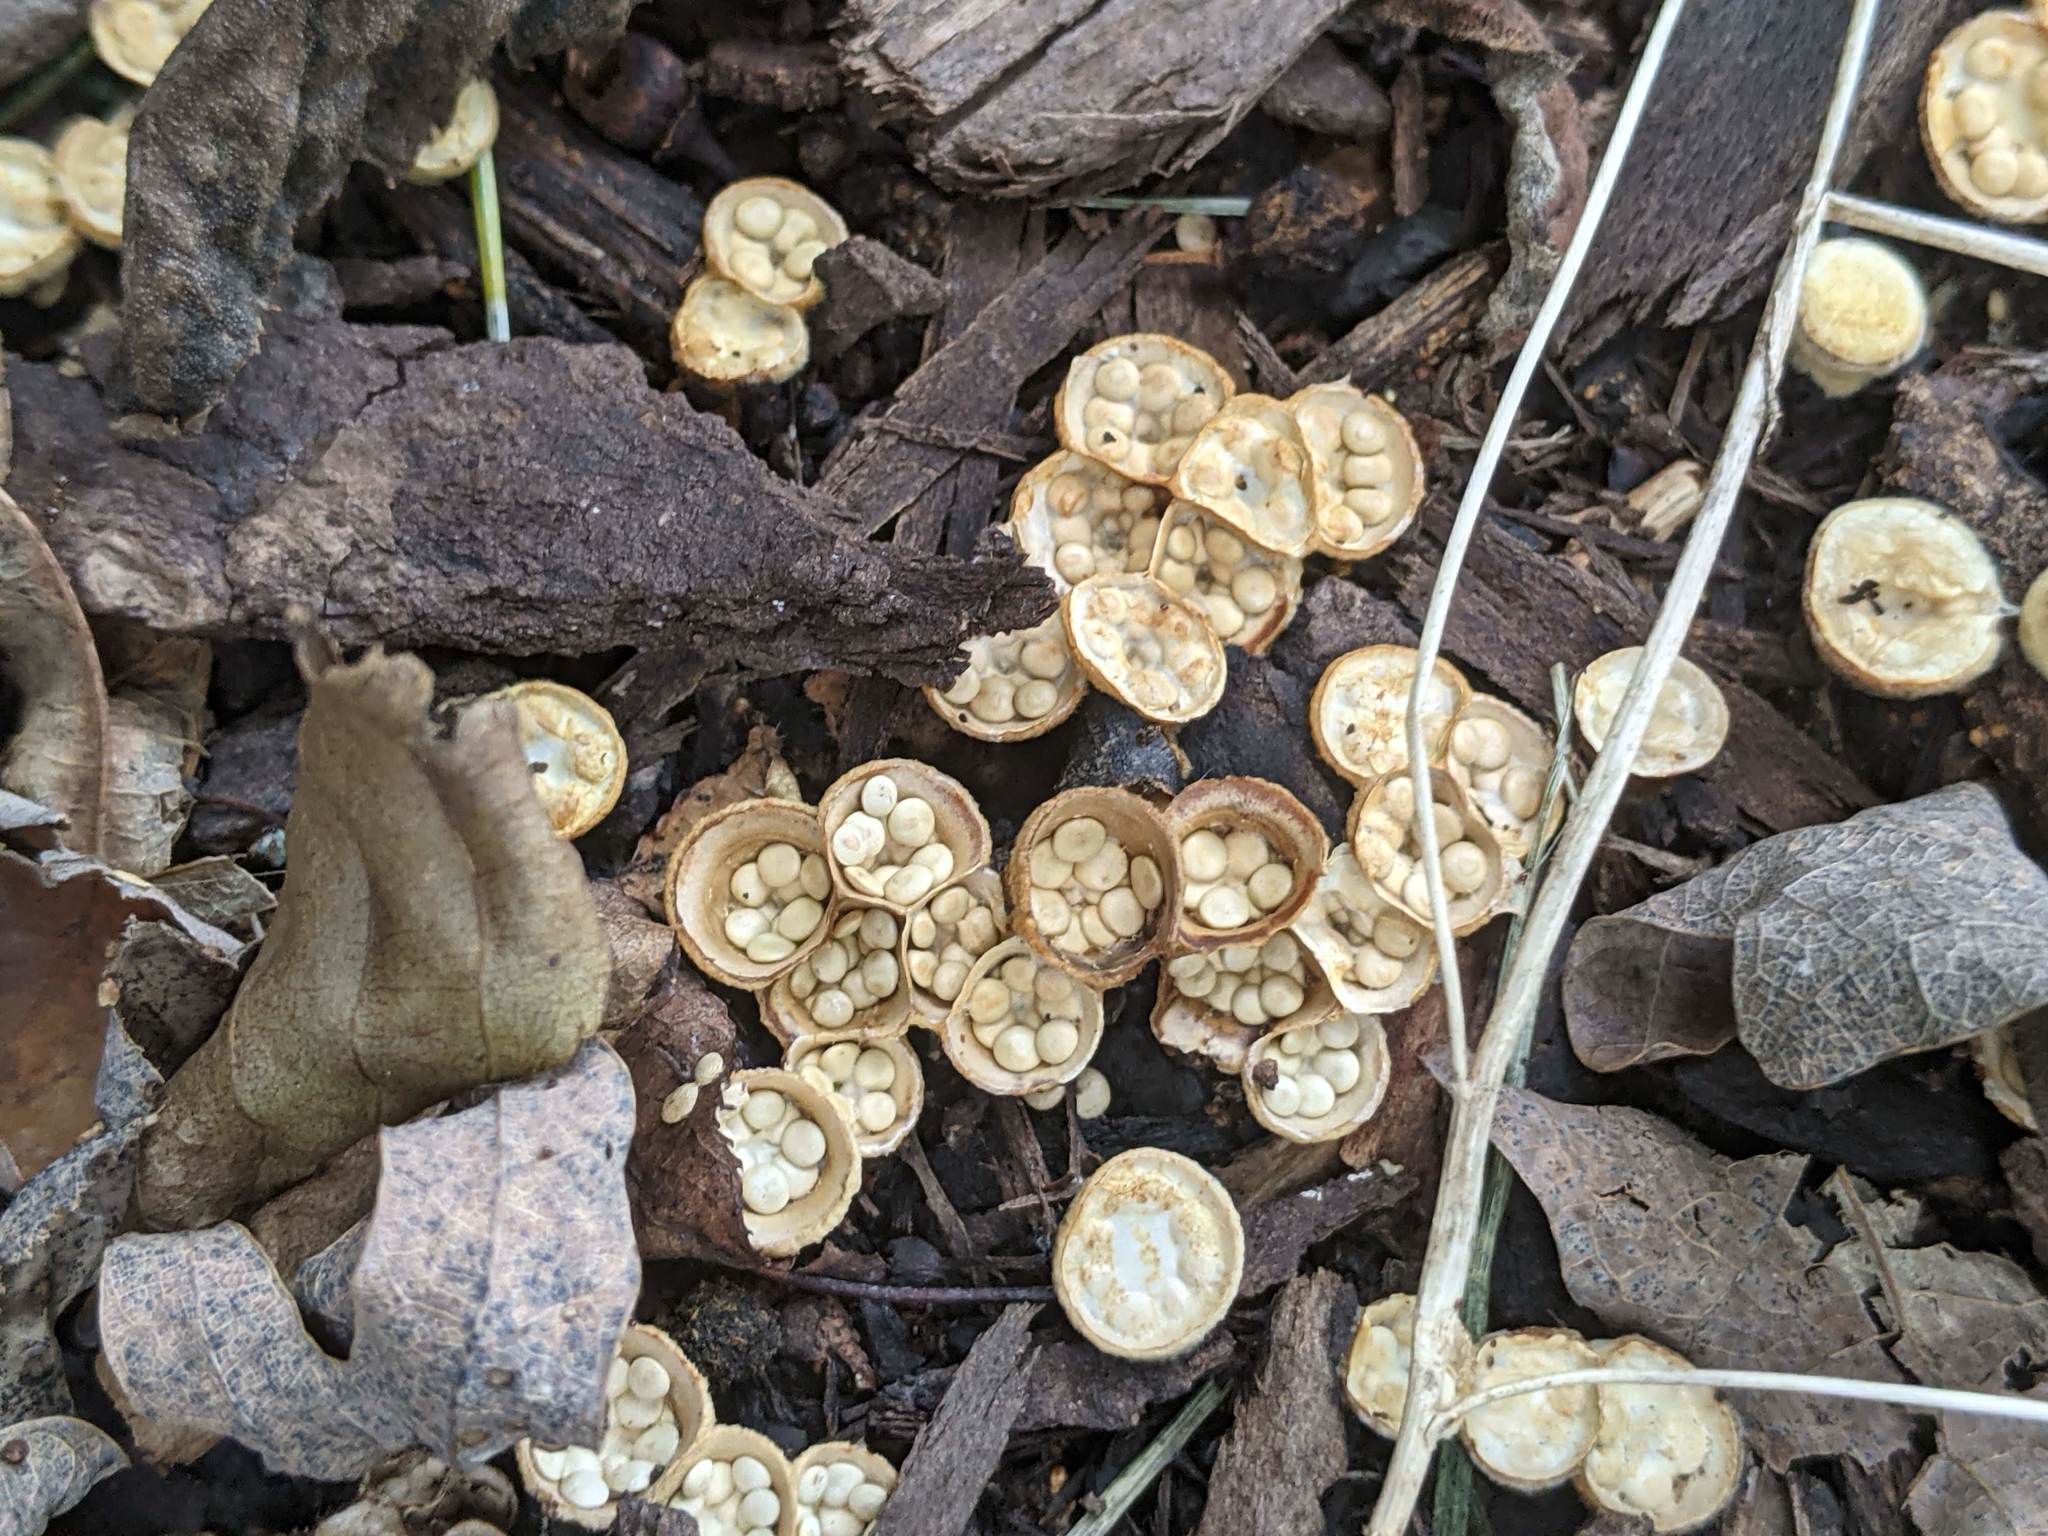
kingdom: Fungi
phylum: Basidiomycota
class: Agaricomycetes
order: Agaricales
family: Nidulariaceae
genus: Crucibulum
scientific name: Crucibulum laeve
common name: Common bird's nest
